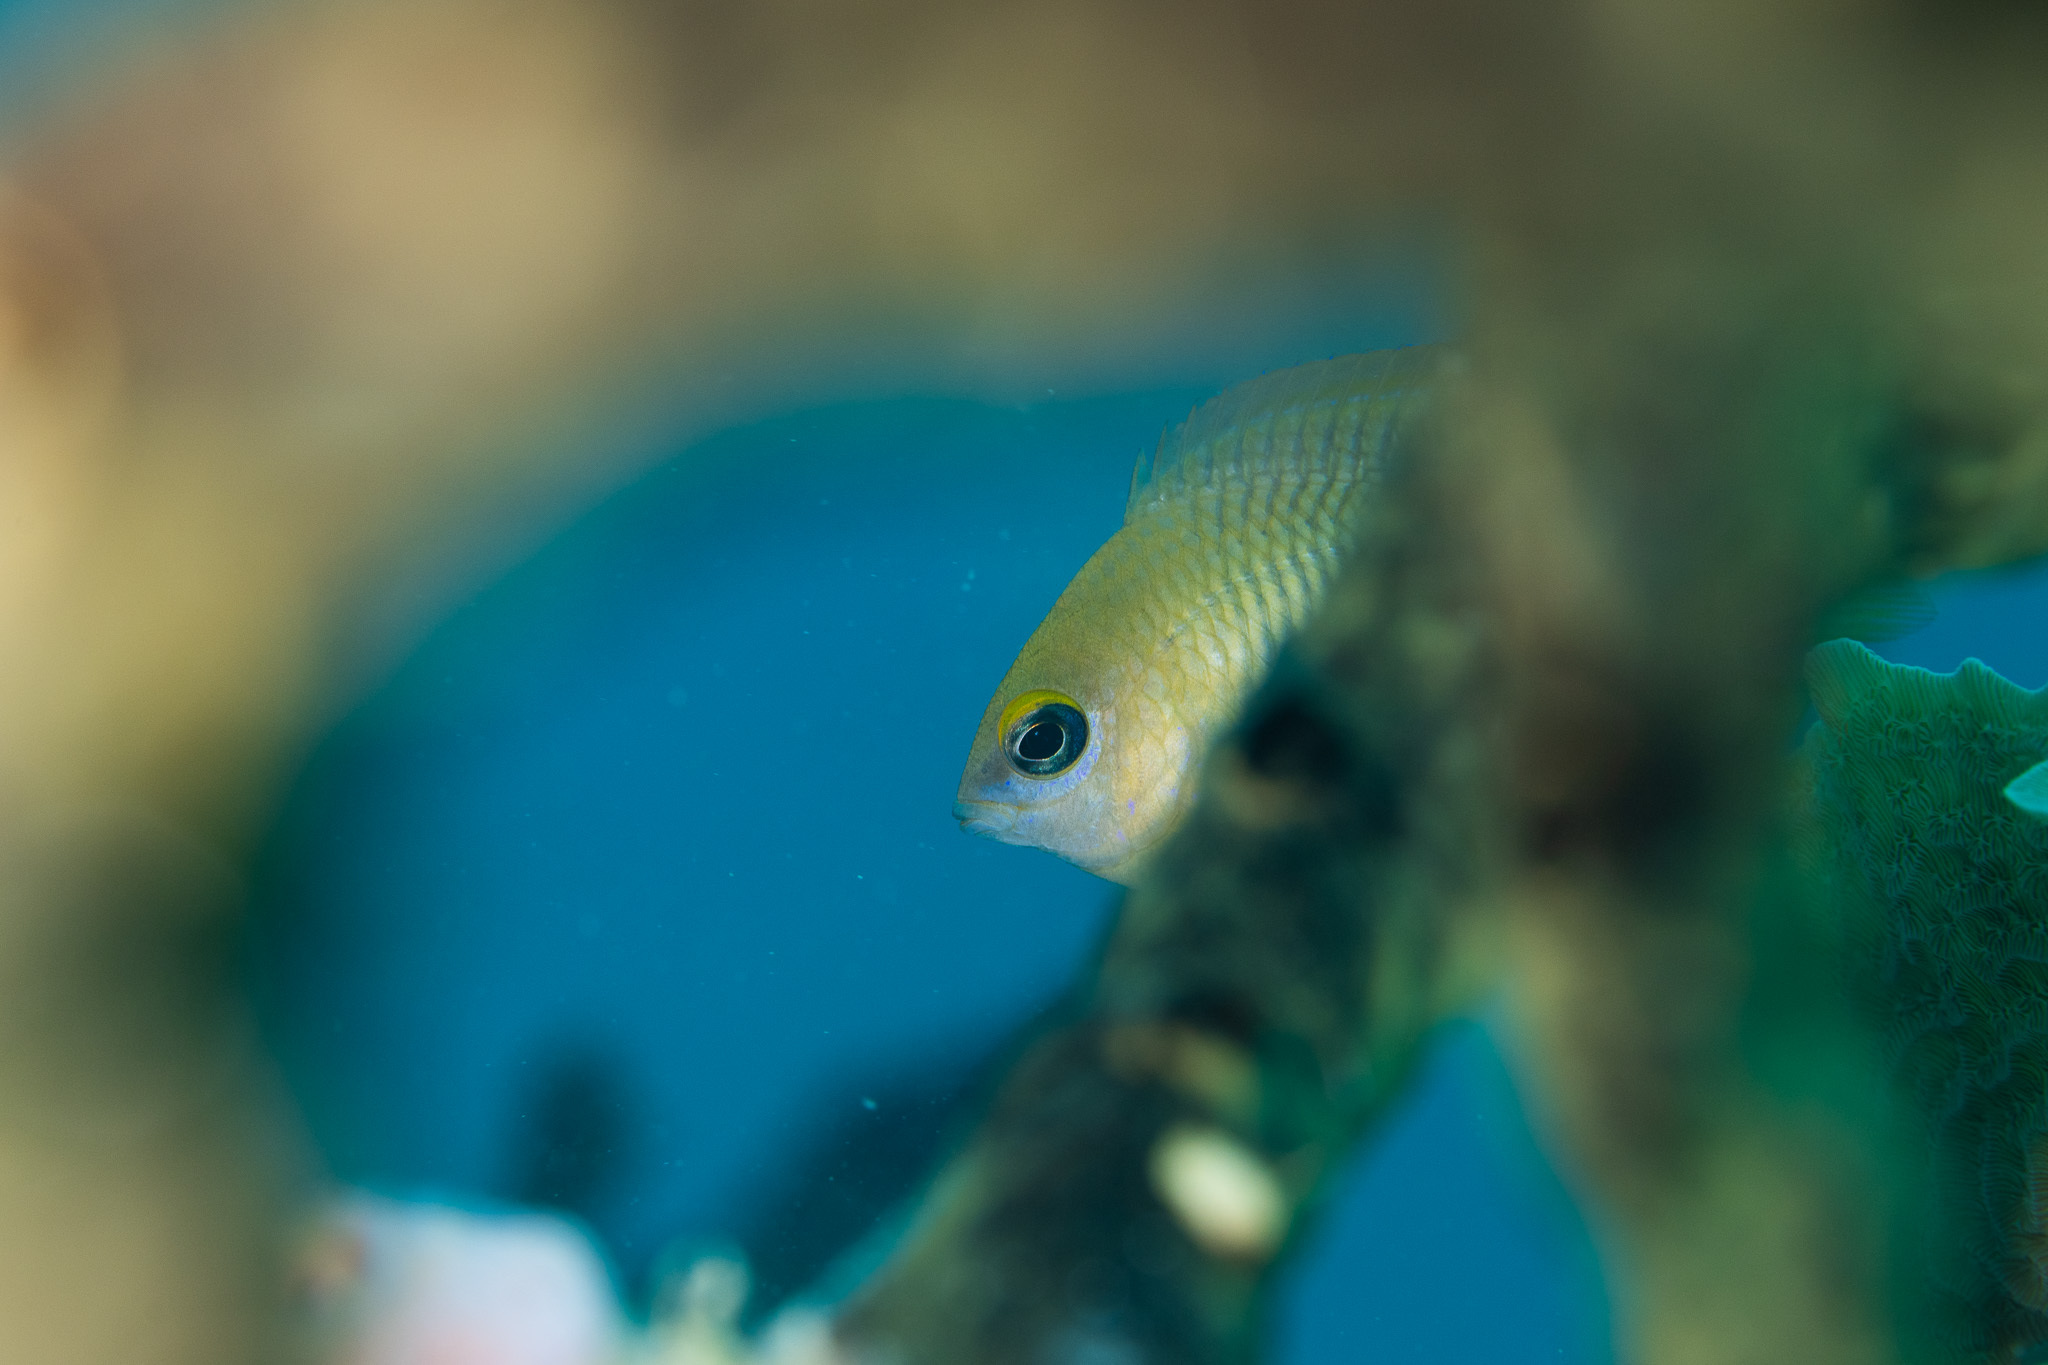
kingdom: Animalia
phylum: Chordata
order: Perciformes
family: Pomacentridae
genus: Stegastes
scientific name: Stegastes planifrons
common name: Threespot damselfish
